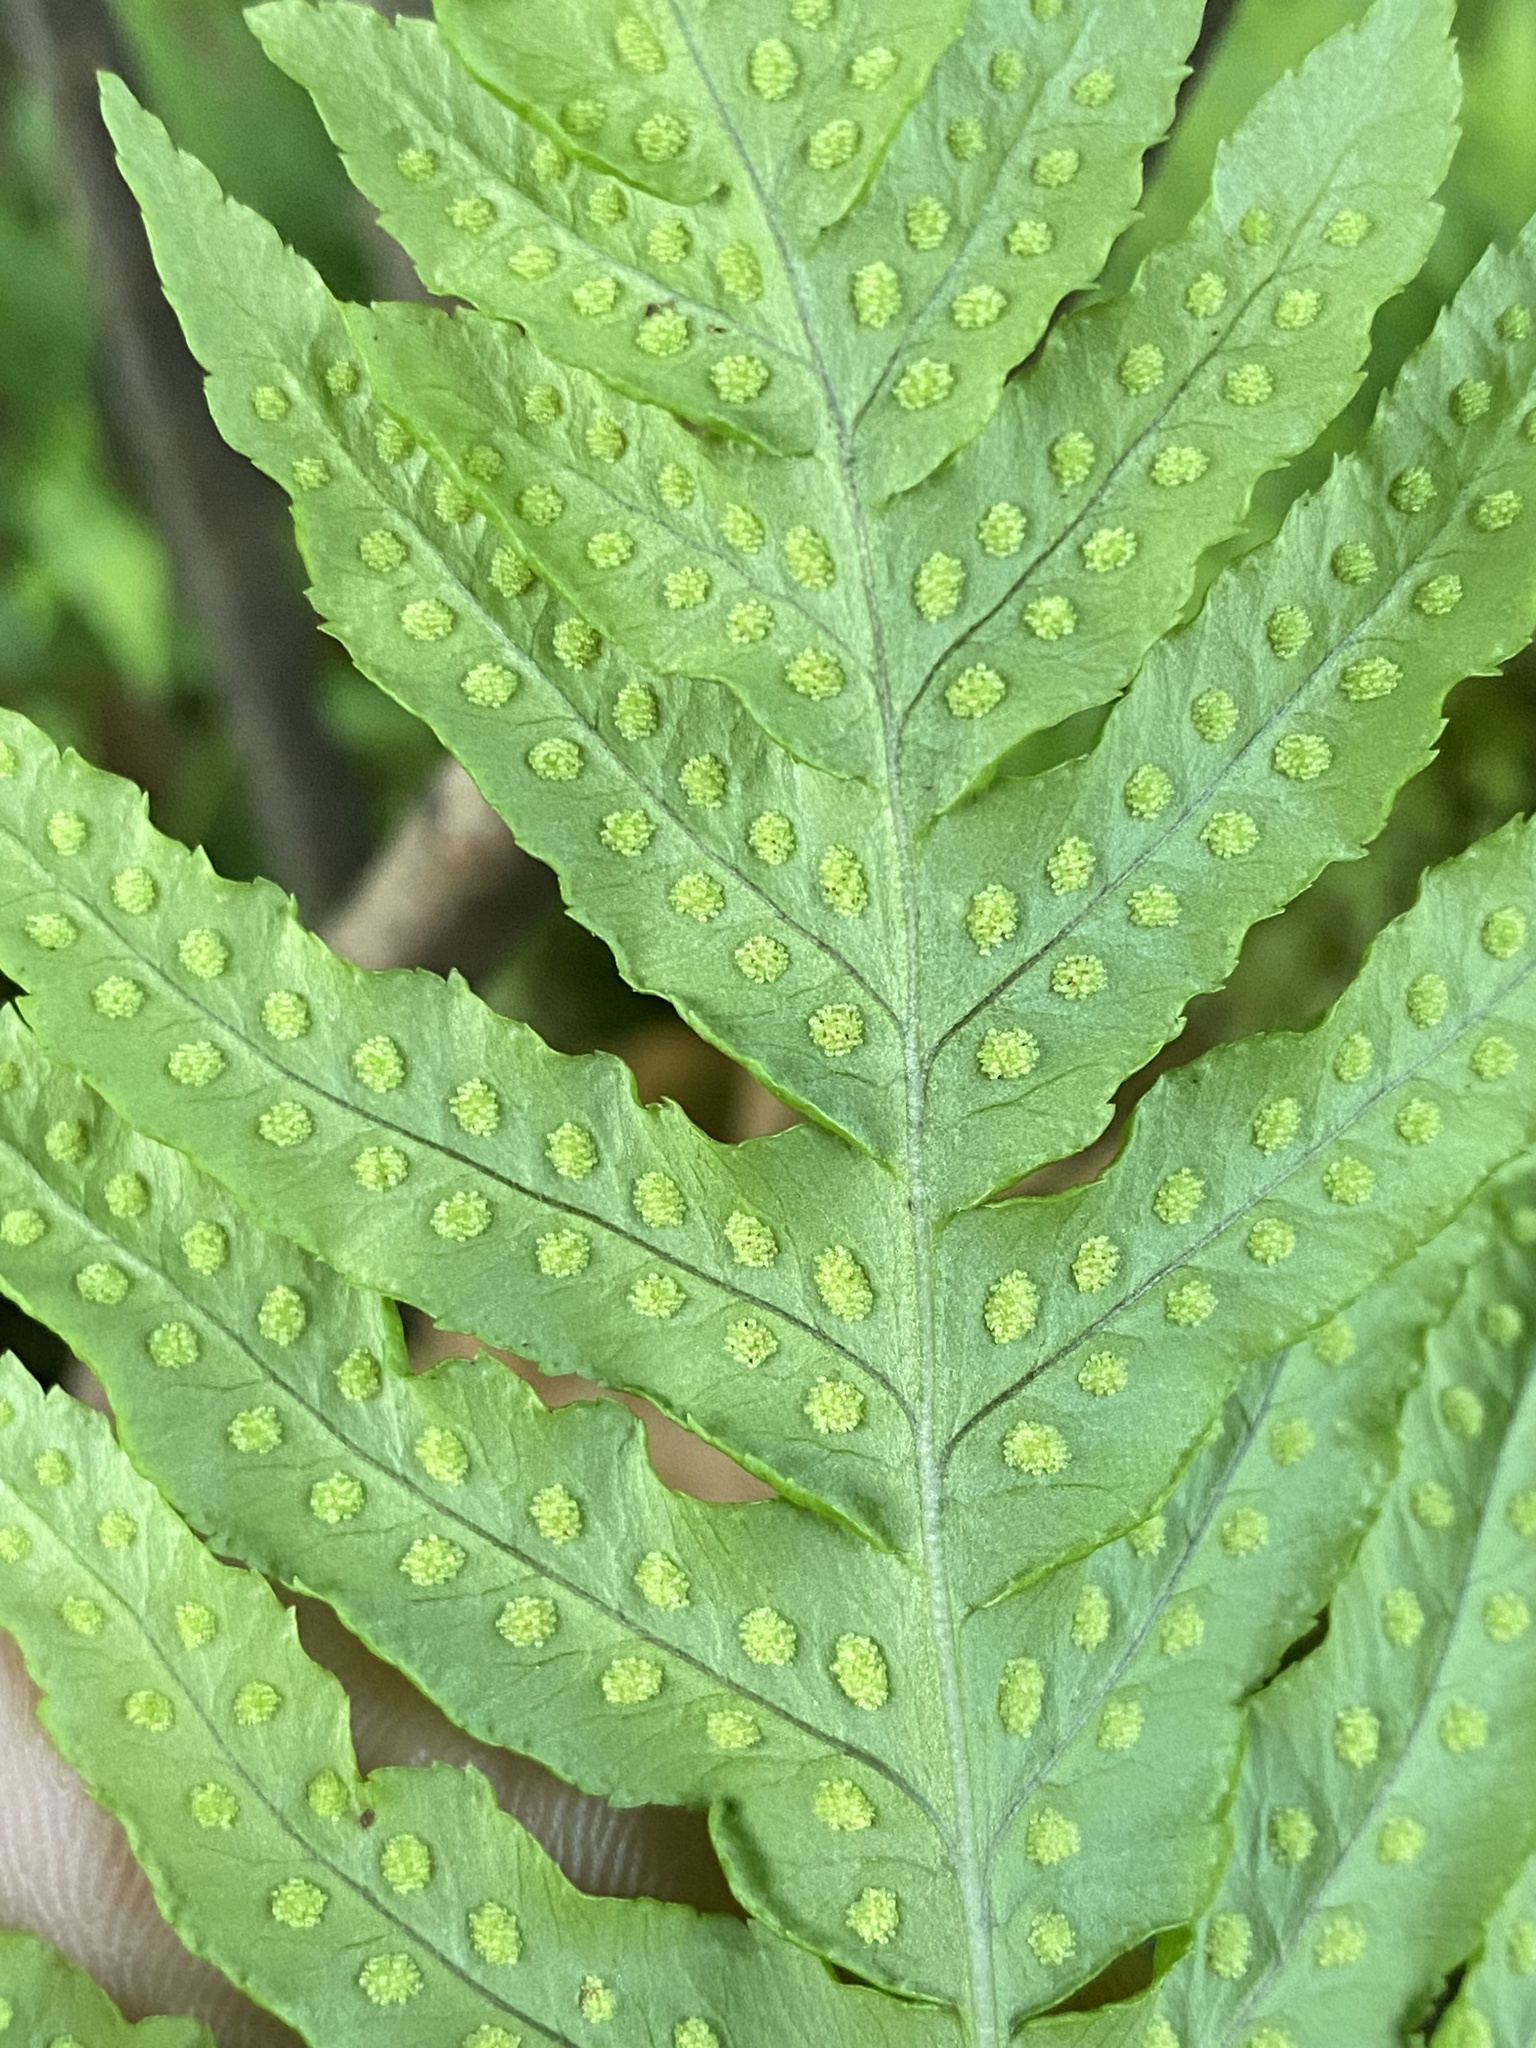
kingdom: Plantae
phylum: Tracheophyta
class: Polypodiopsida
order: Polypodiales
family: Polypodiaceae
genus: Polypodium
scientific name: Polypodium glycyrrhiza
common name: Licorice fern
